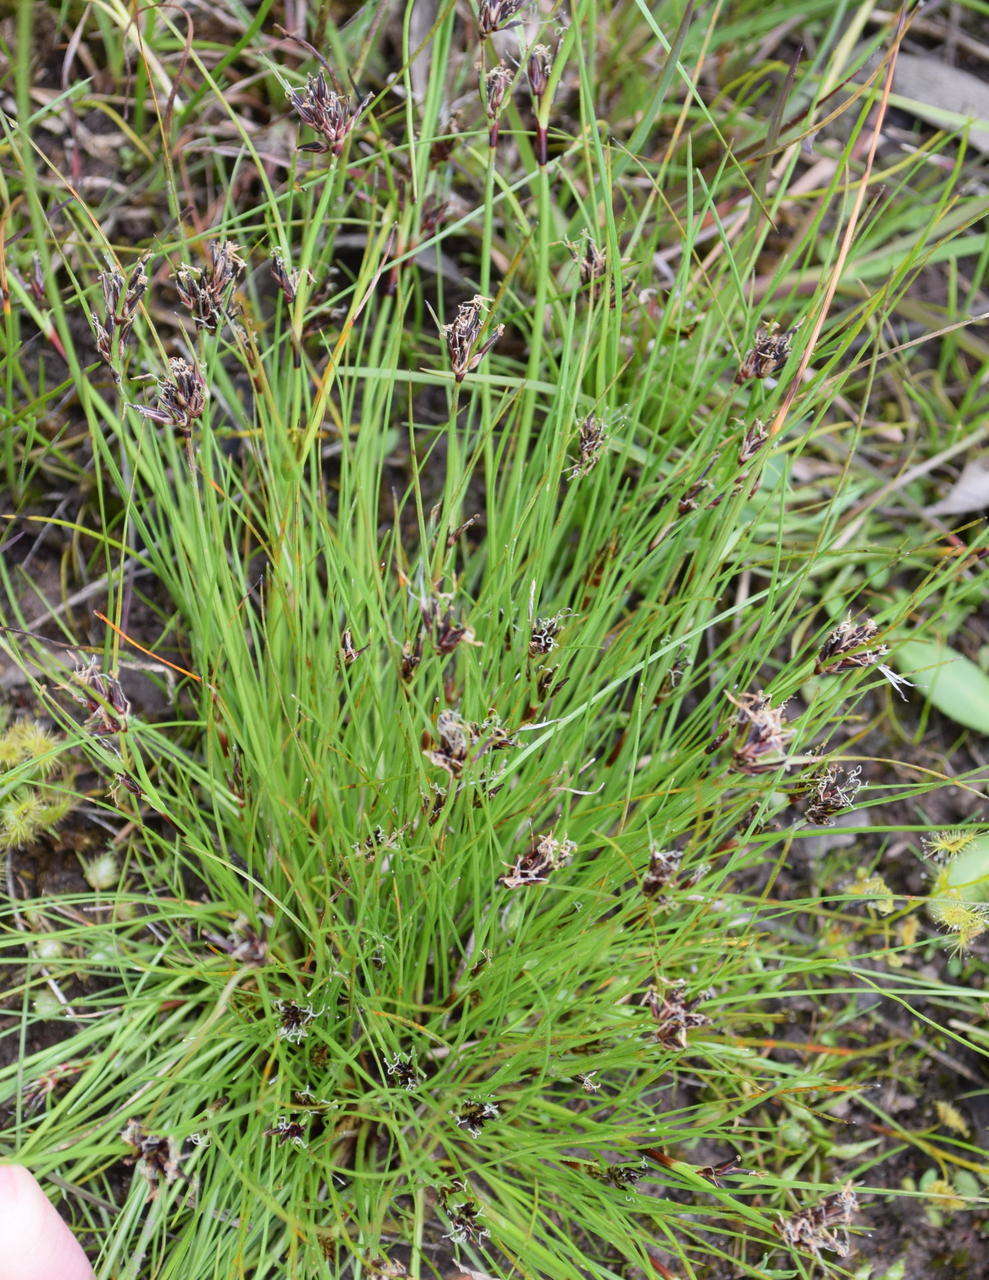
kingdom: Plantae
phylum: Tracheophyta
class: Liliopsida
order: Poales
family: Cyperaceae
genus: Schoenus
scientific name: Schoenus apogon
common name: Smooth bogrush
